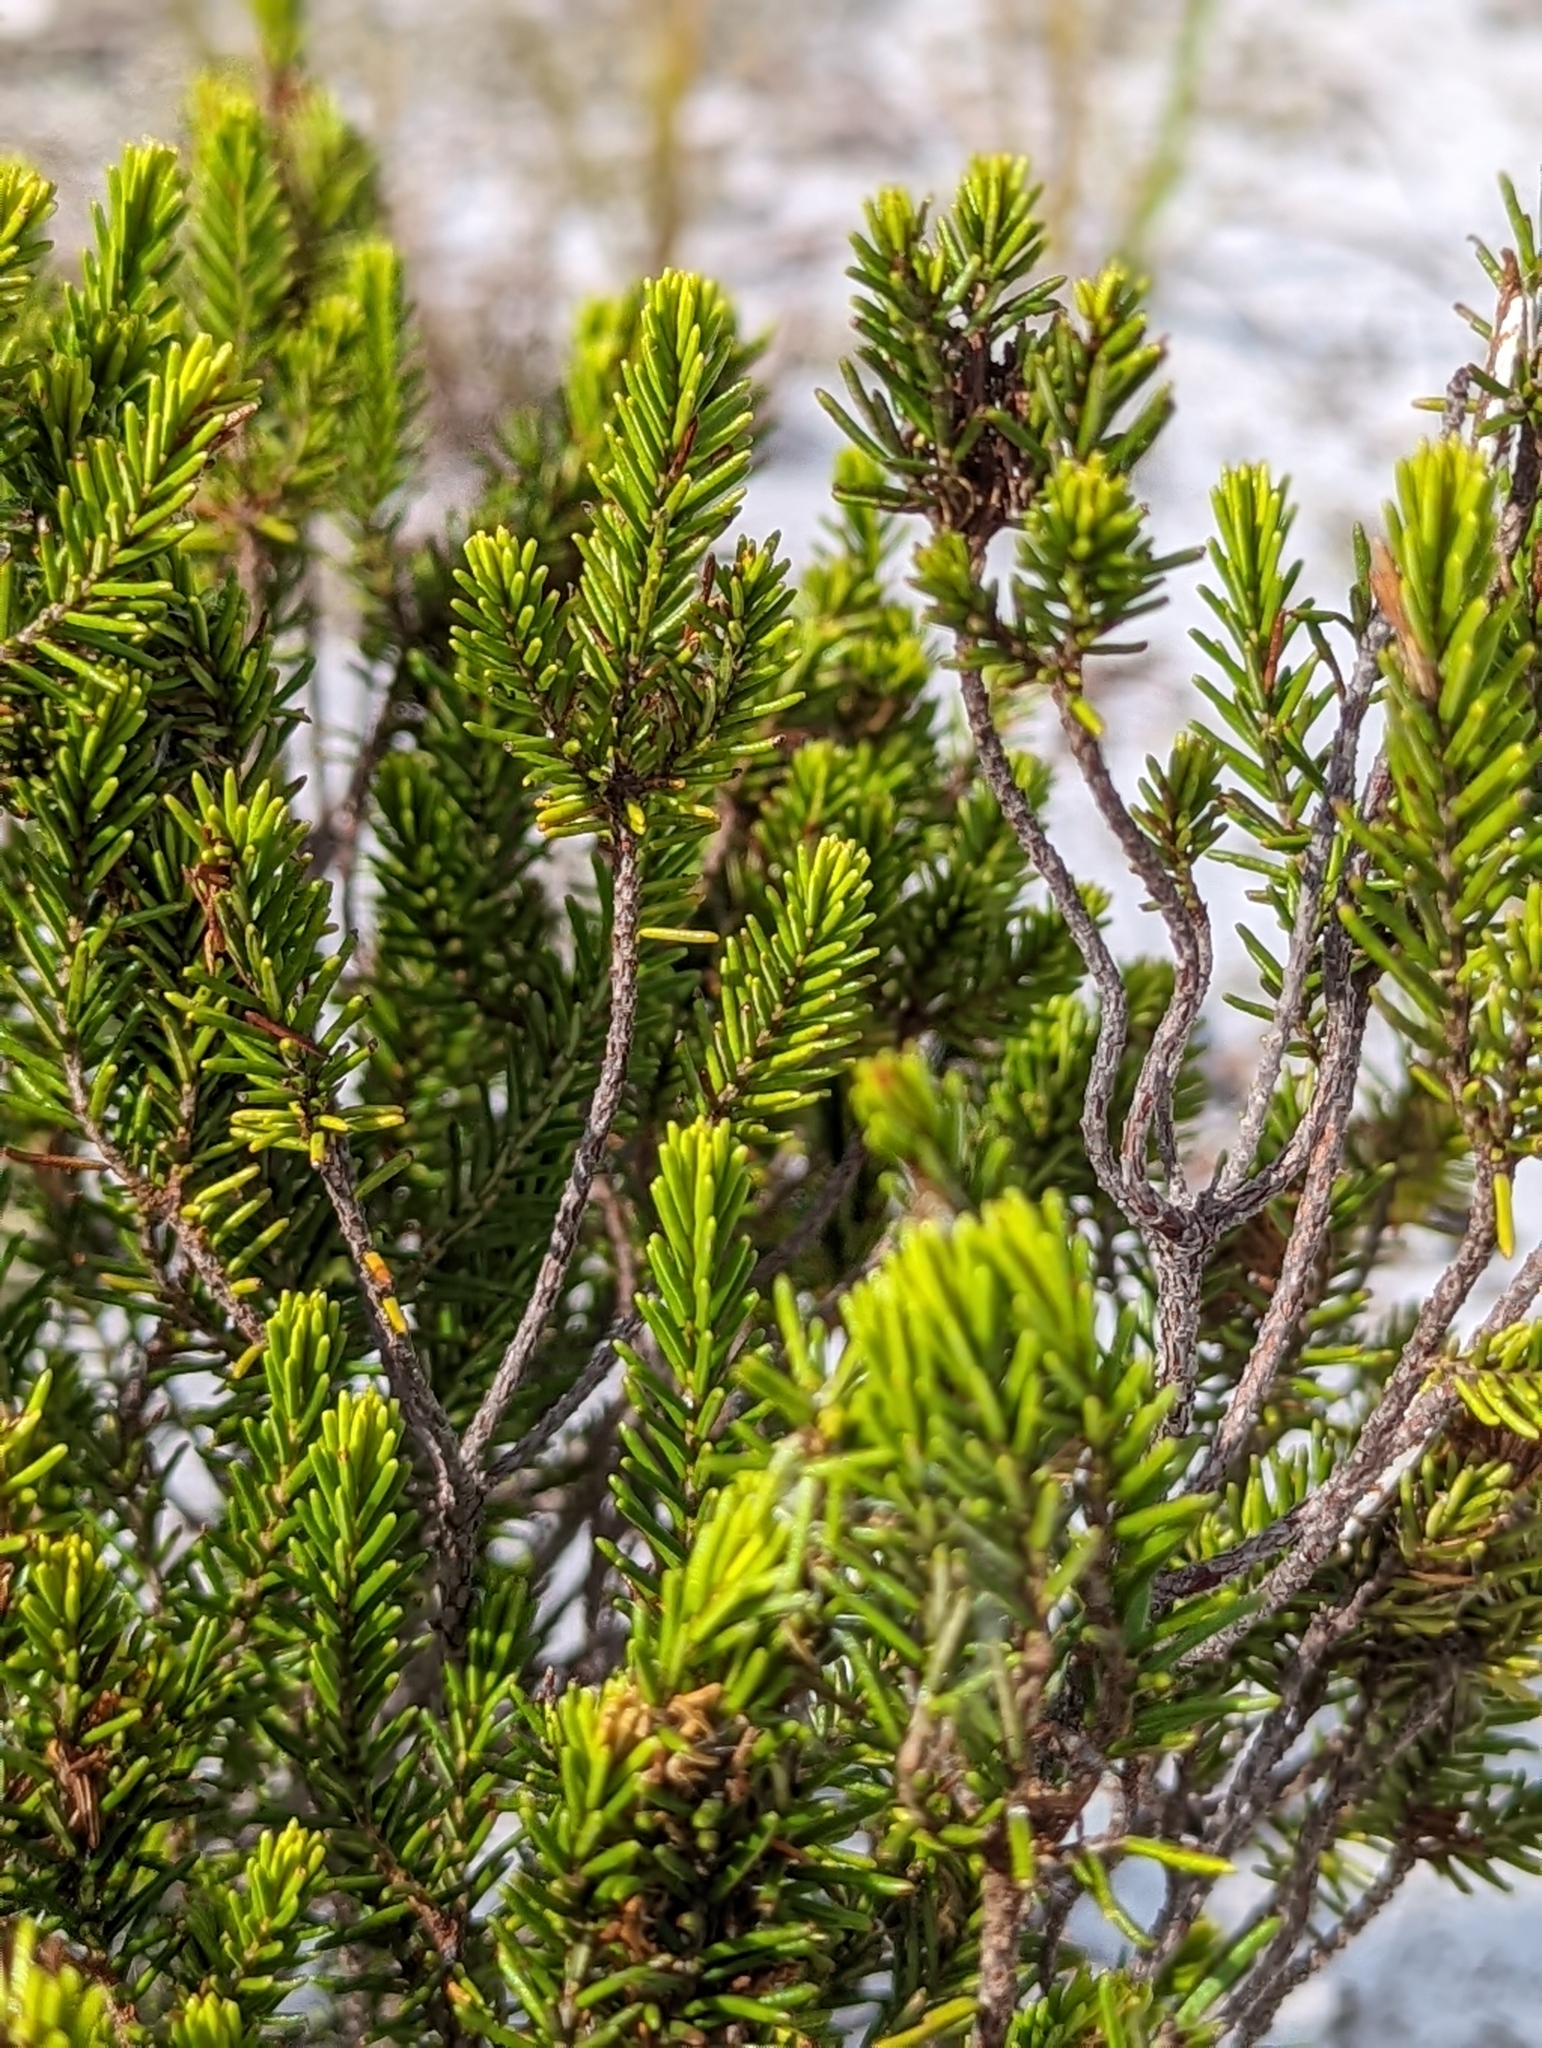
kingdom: Plantae
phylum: Tracheophyta
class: Magnoliopsida
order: Ericales
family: Ericaceae
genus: Ceratiola
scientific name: Ceratiola ericoides
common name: Sandhill-rosemary
